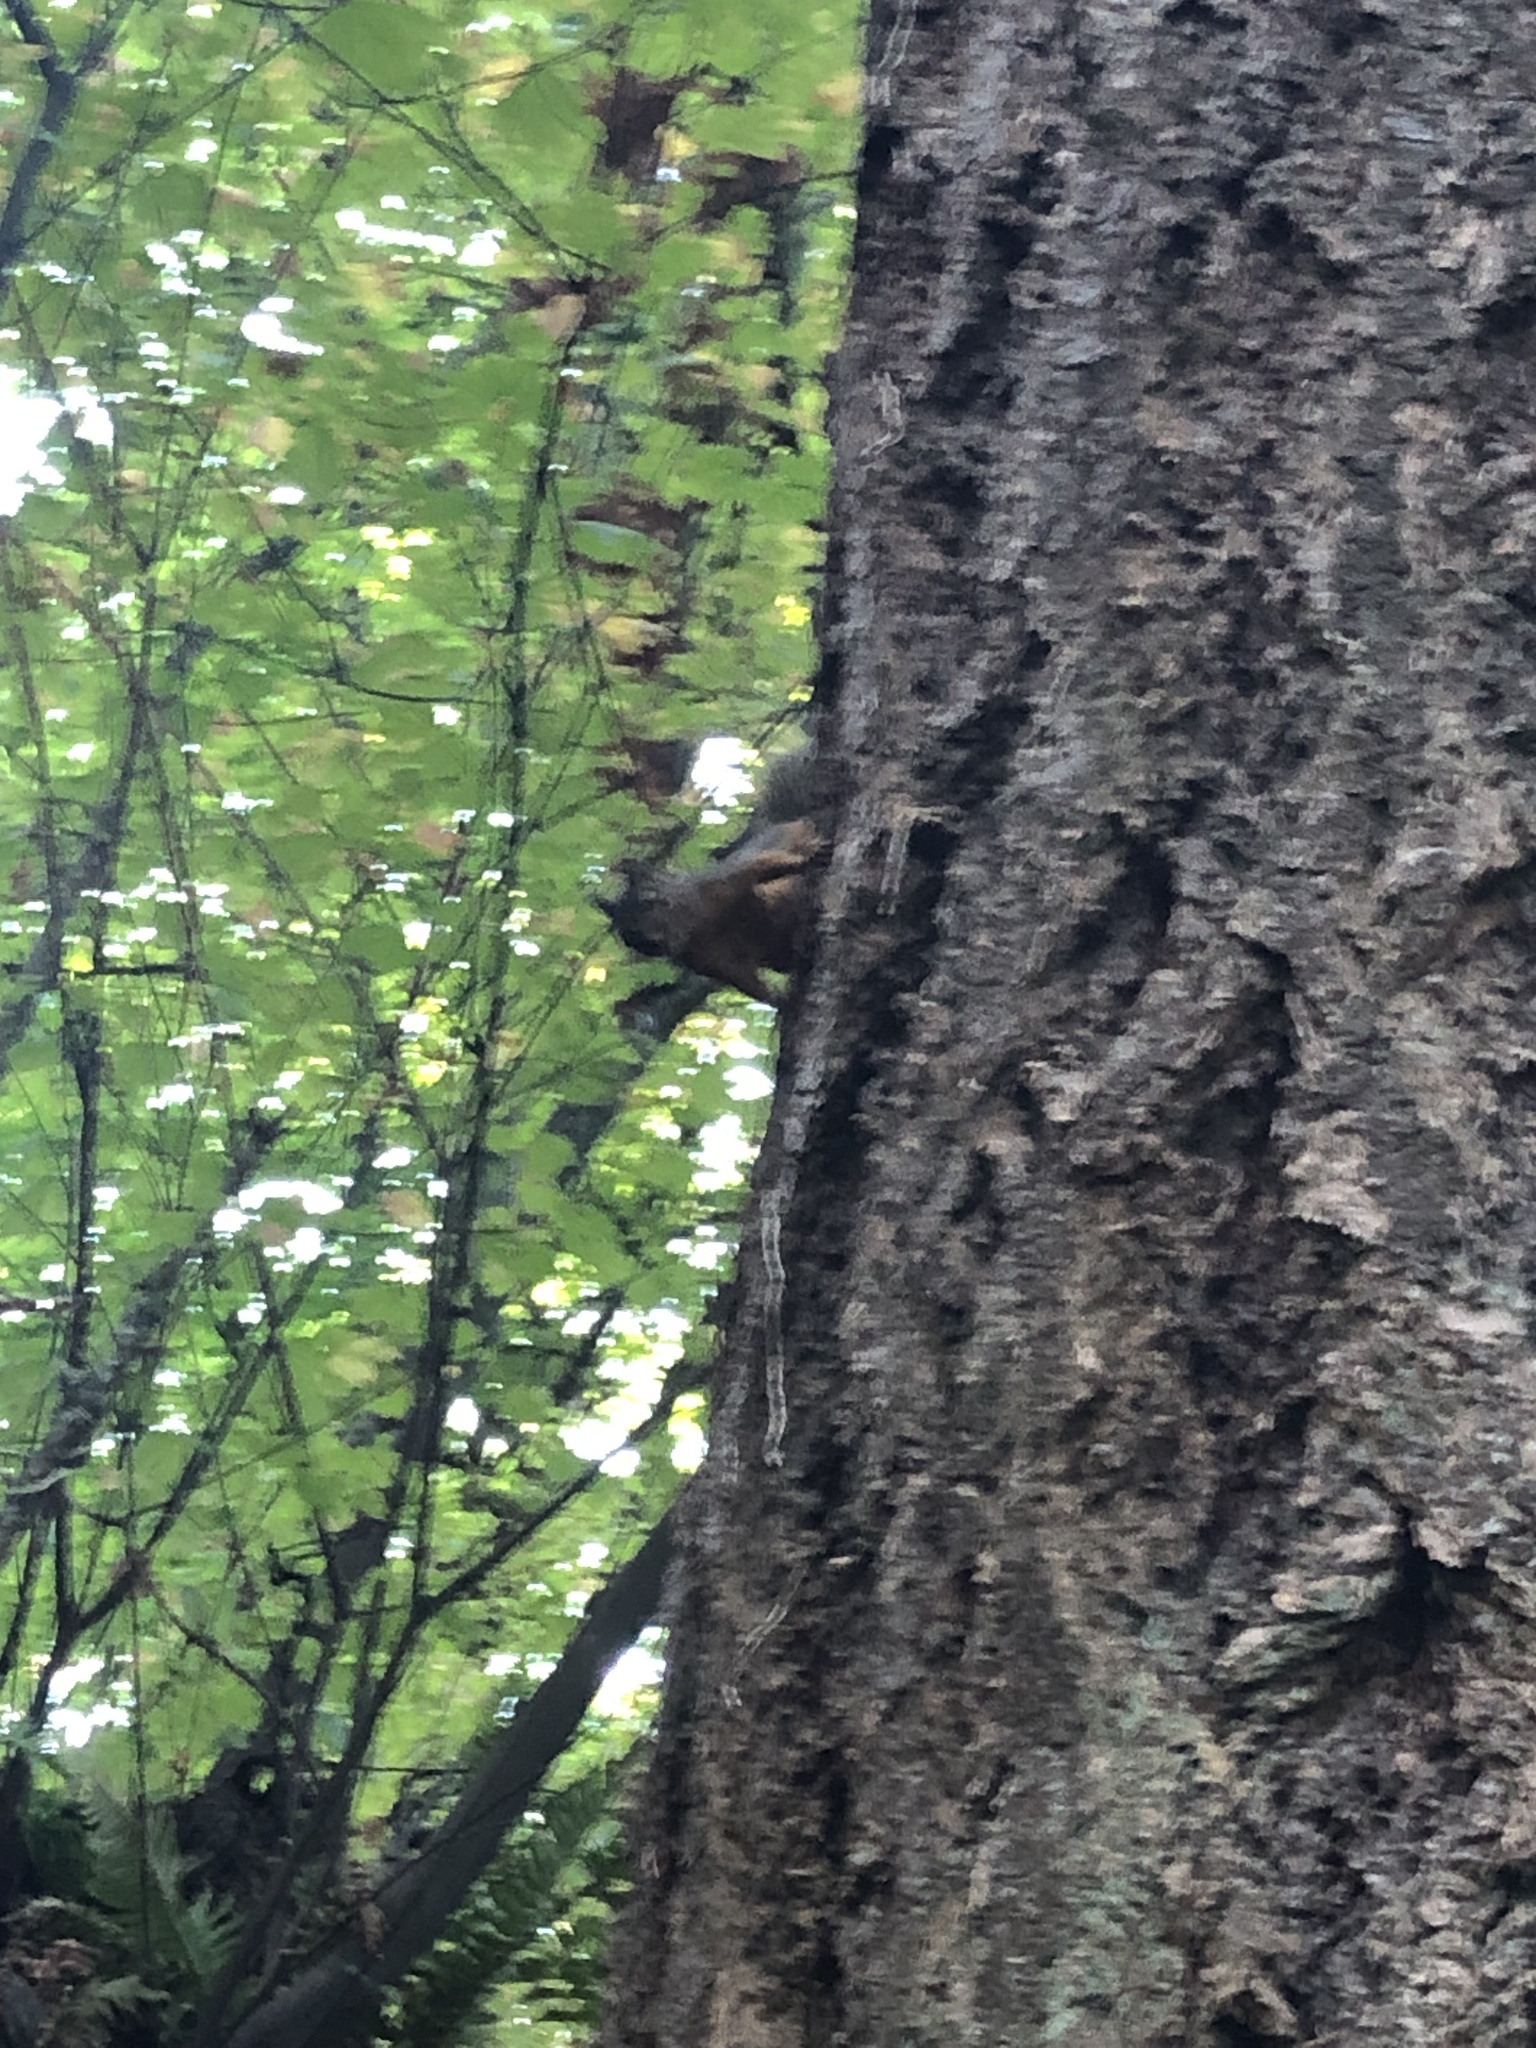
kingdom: Animalia
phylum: Chordata
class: Mammalia
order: Rodentia
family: Sciuridae
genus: Tamiasciurus
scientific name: Tamiasciurus douglasii
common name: Douglas's squirrel
